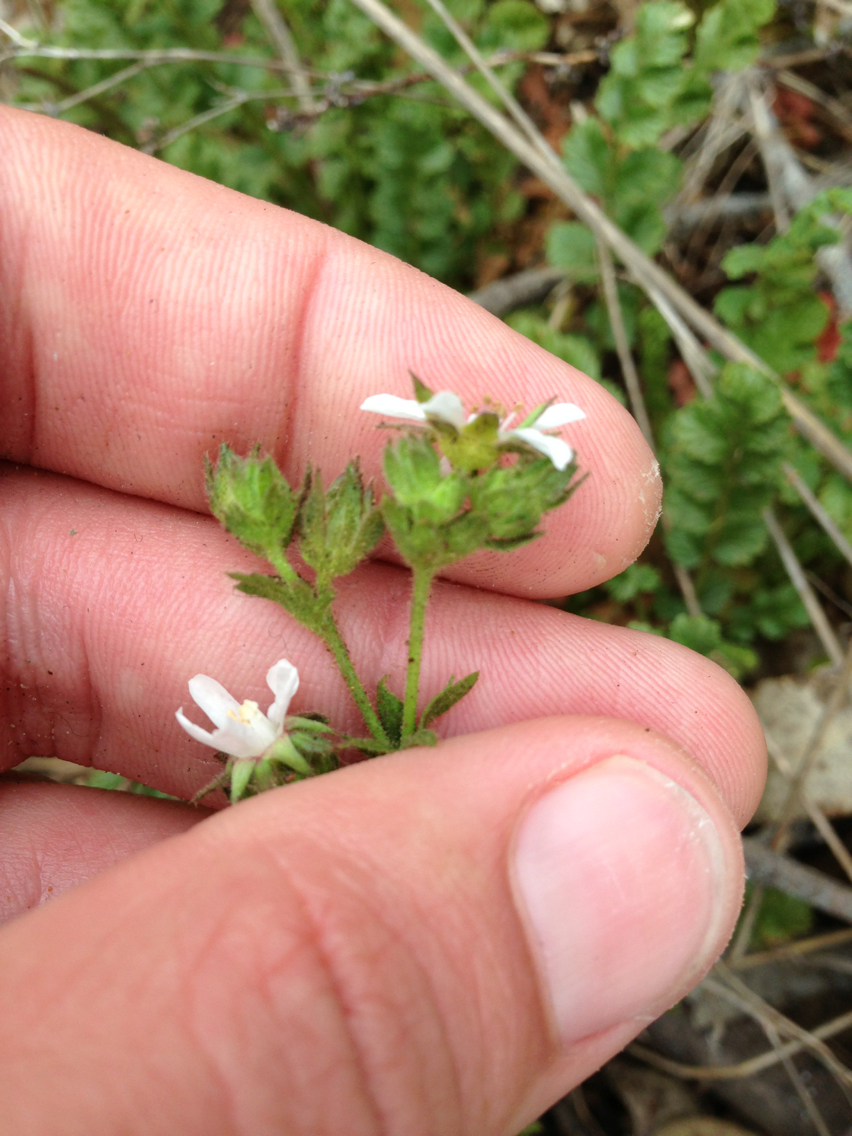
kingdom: Plantae
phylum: Tracheophyta
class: Magnoliopsida
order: Rosales
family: Rosaceae
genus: Potentilla
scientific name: Potentilla
